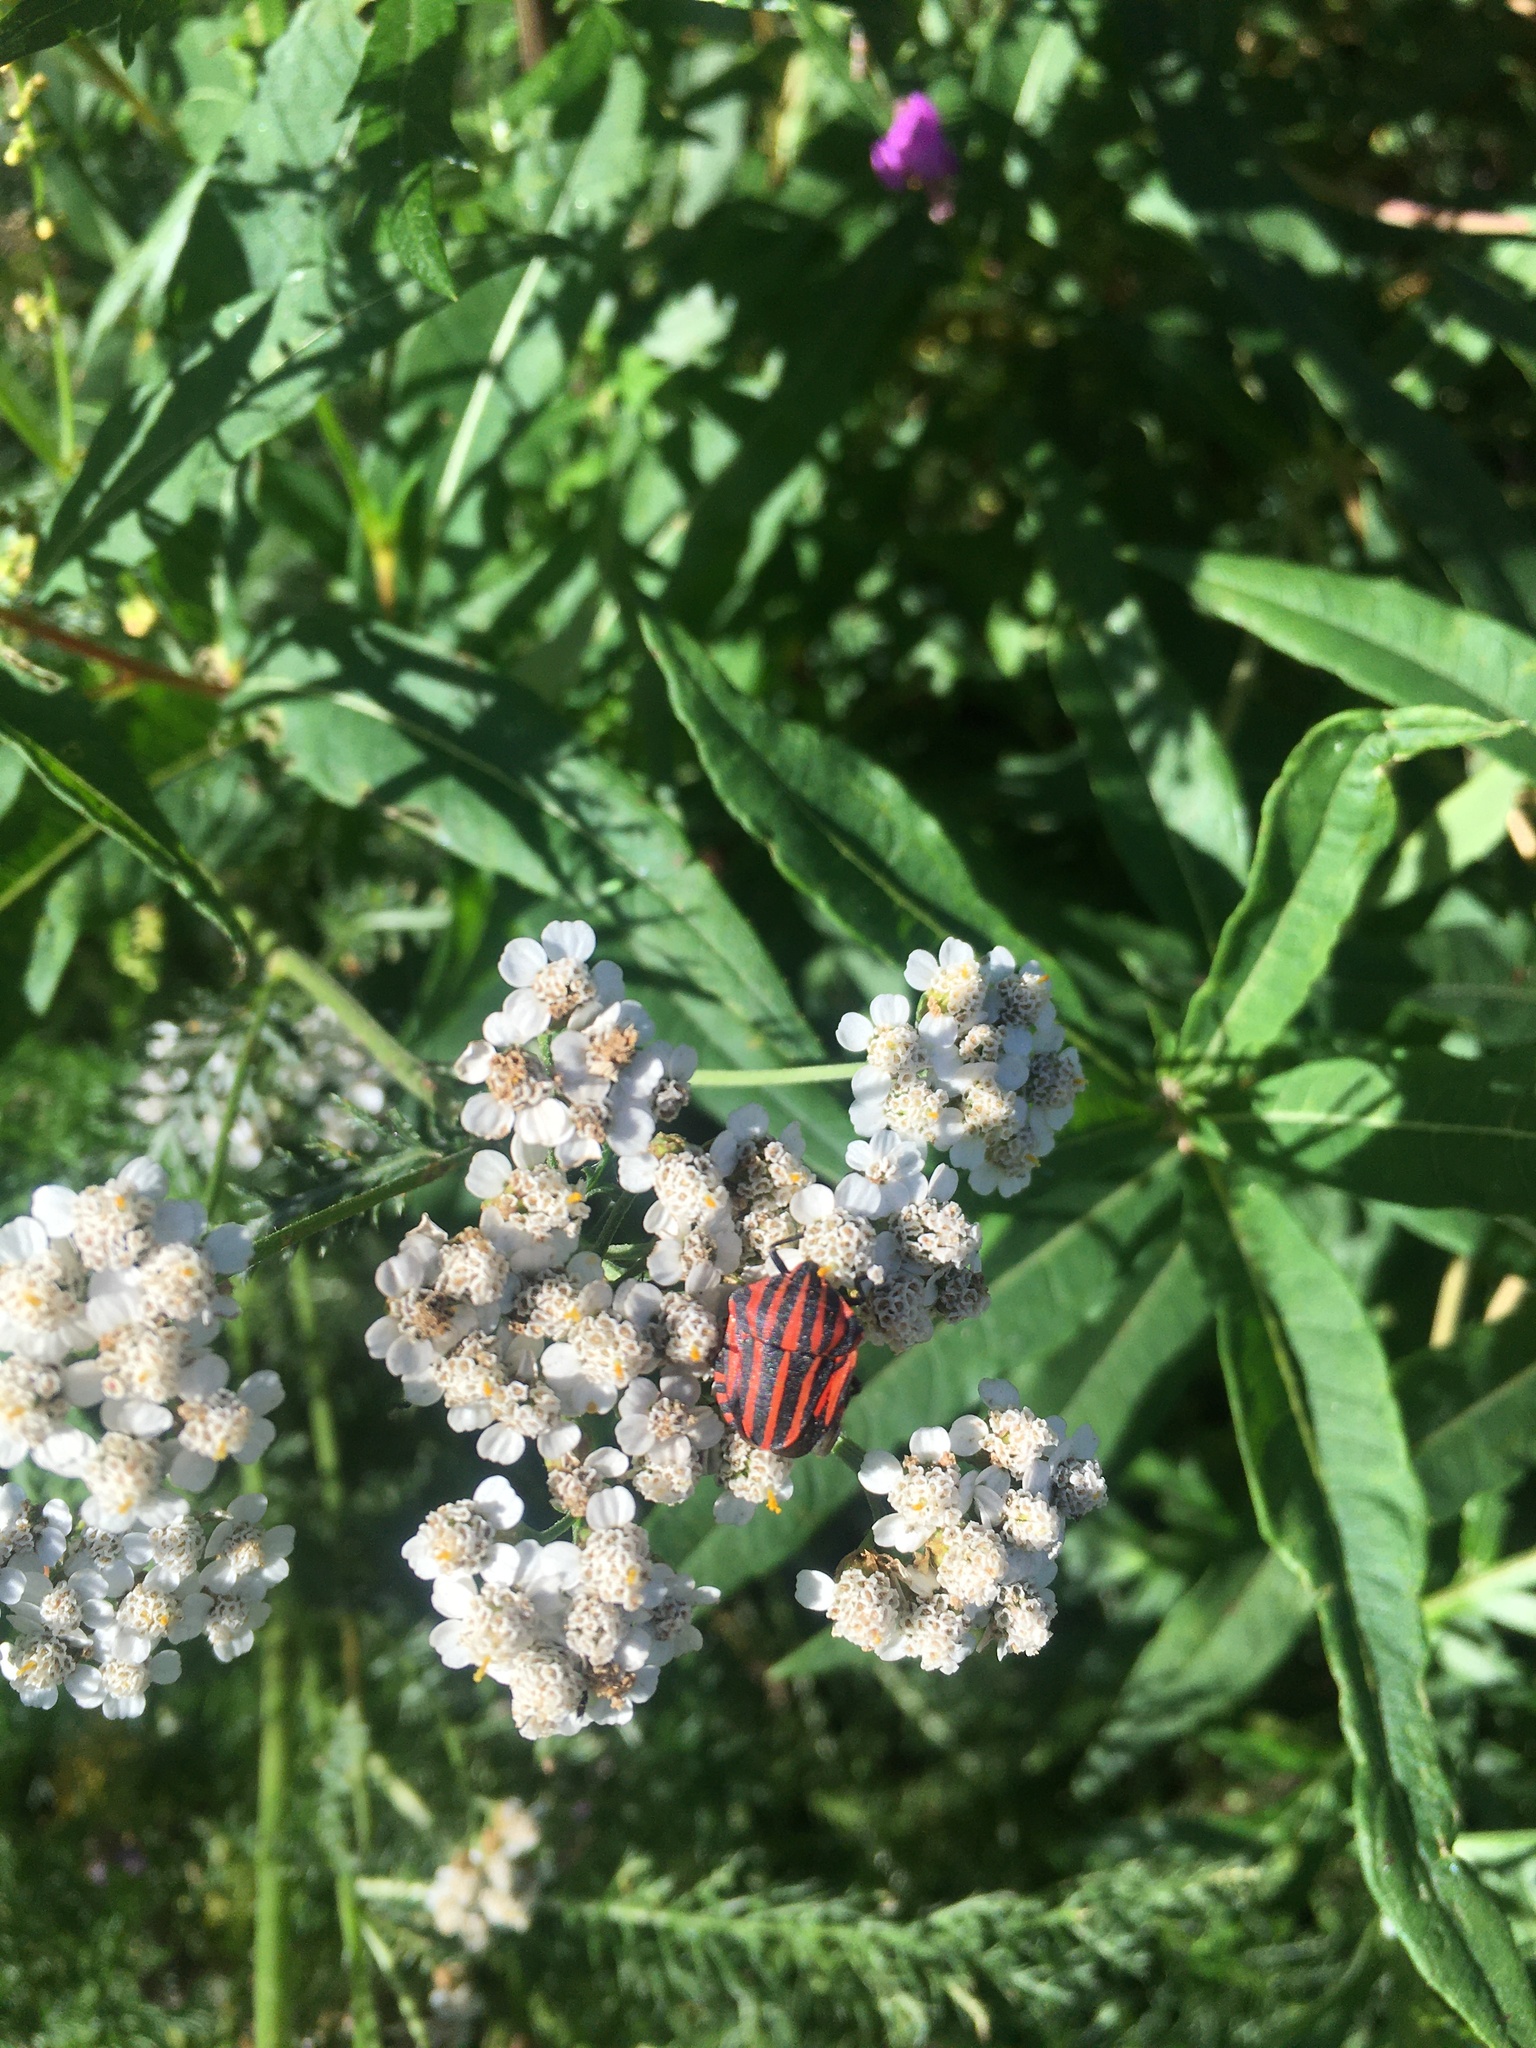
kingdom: Animalia
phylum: Arthropoda
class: Insecta
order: Hemiptera
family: Pentatomidae
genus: Graphosoma
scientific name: Graphosoma italicum
